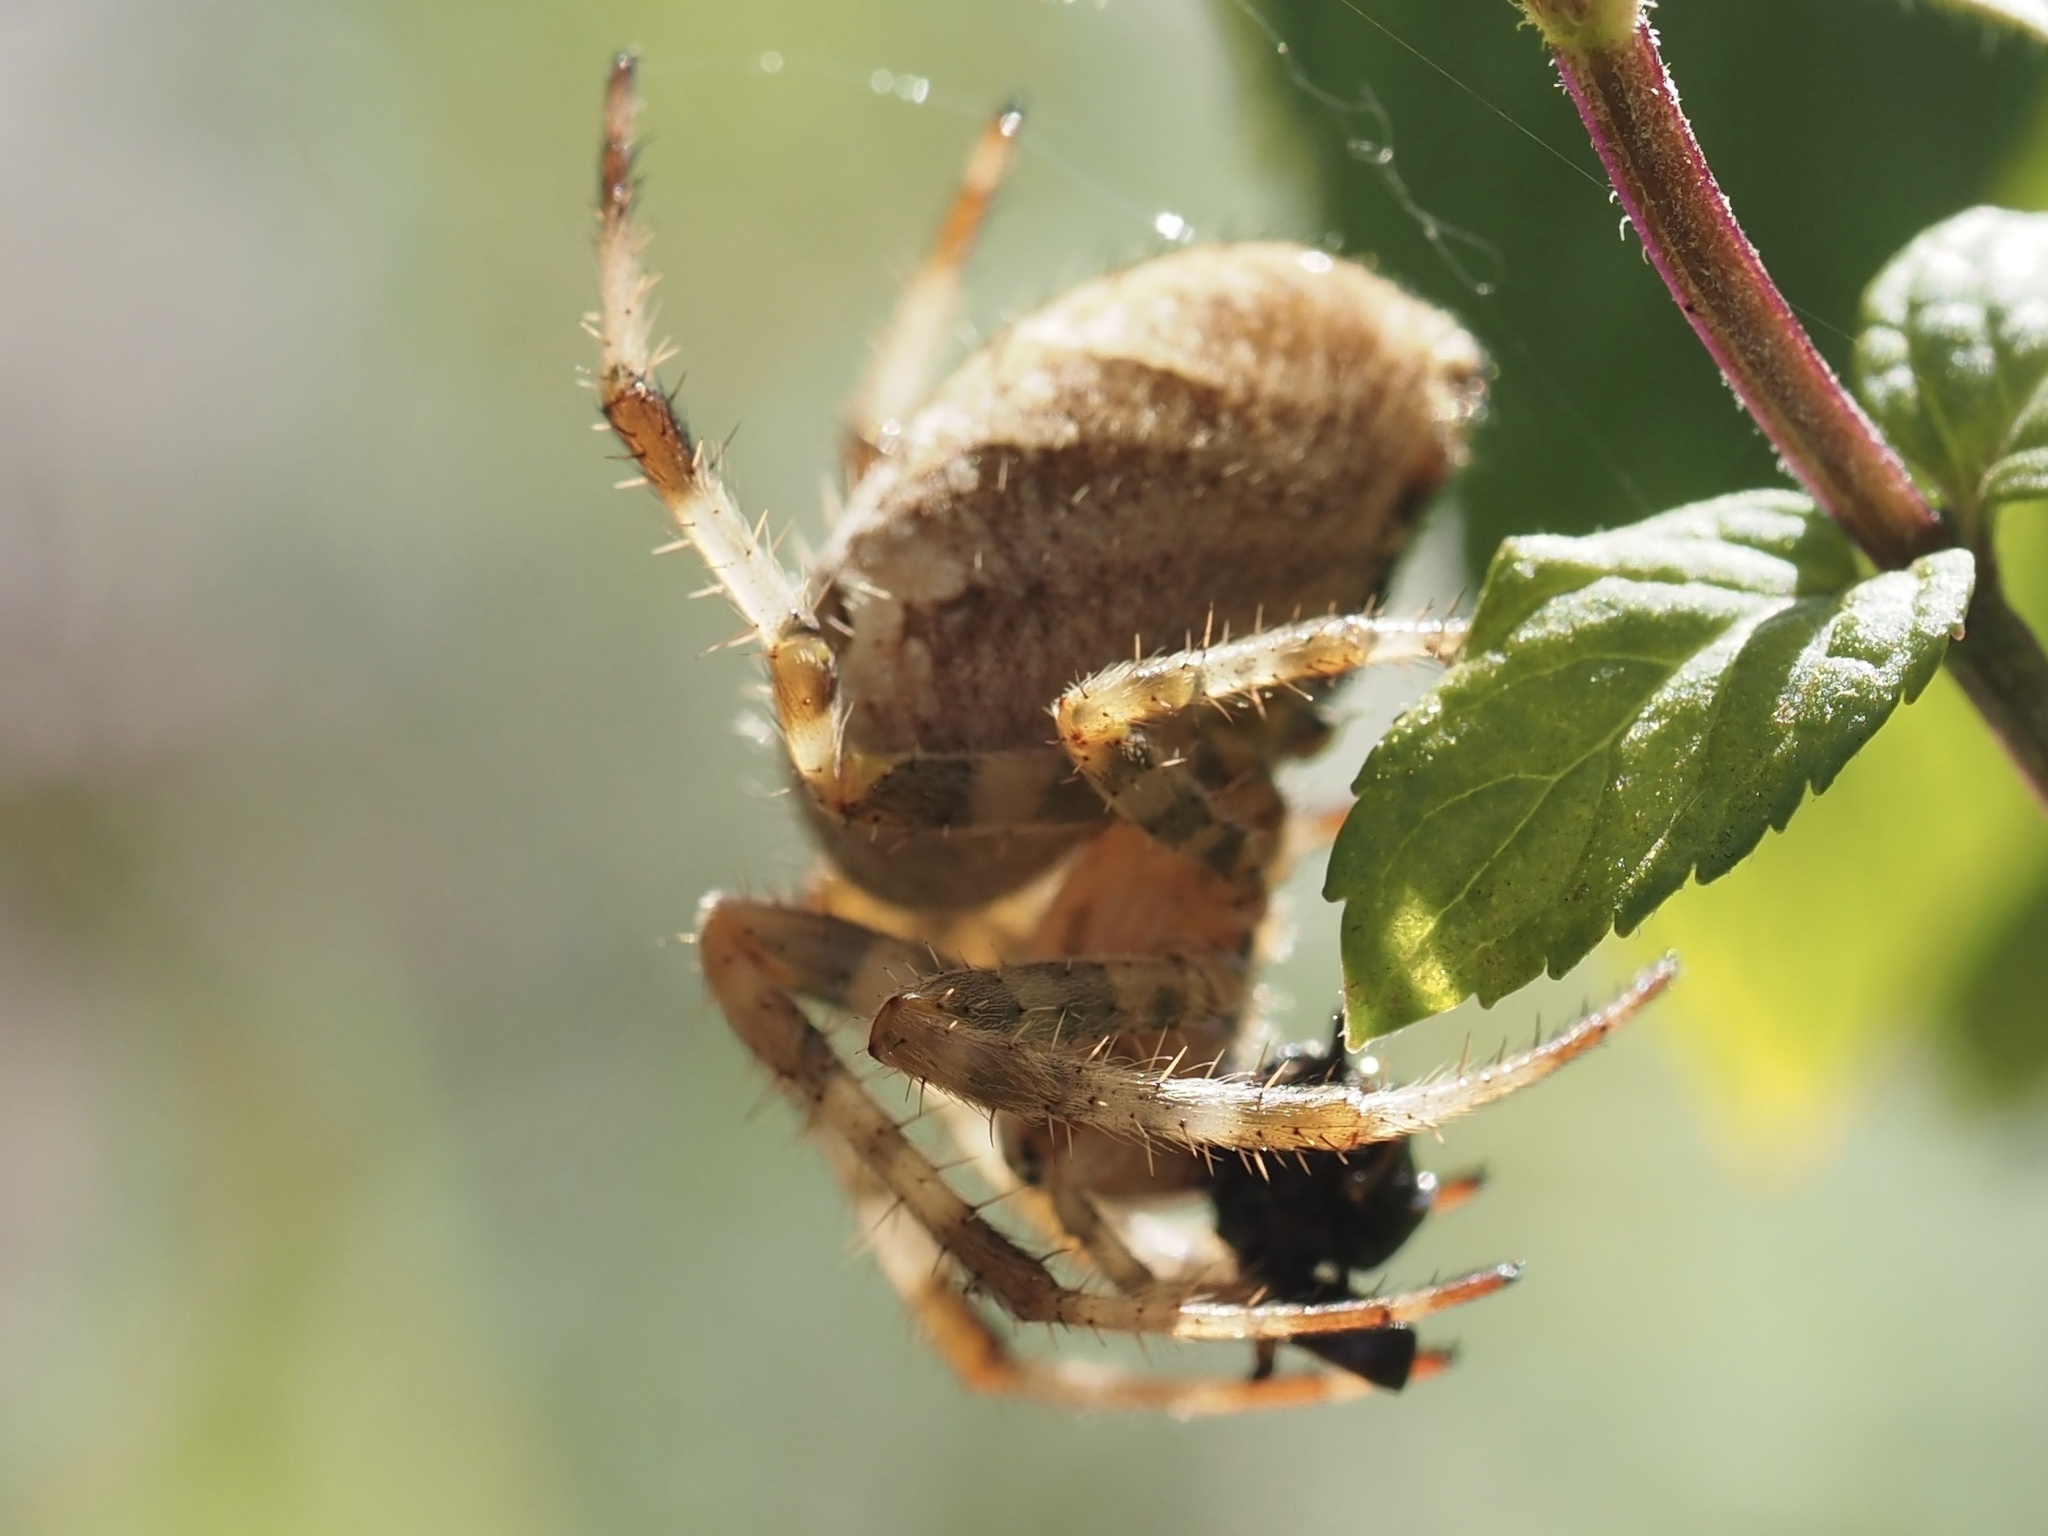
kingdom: Animalia
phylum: Arthropoda
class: Arachnida
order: Araneae
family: Araneidae
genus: Araneus
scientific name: Araneus diadematus
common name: Cross orbweaver
